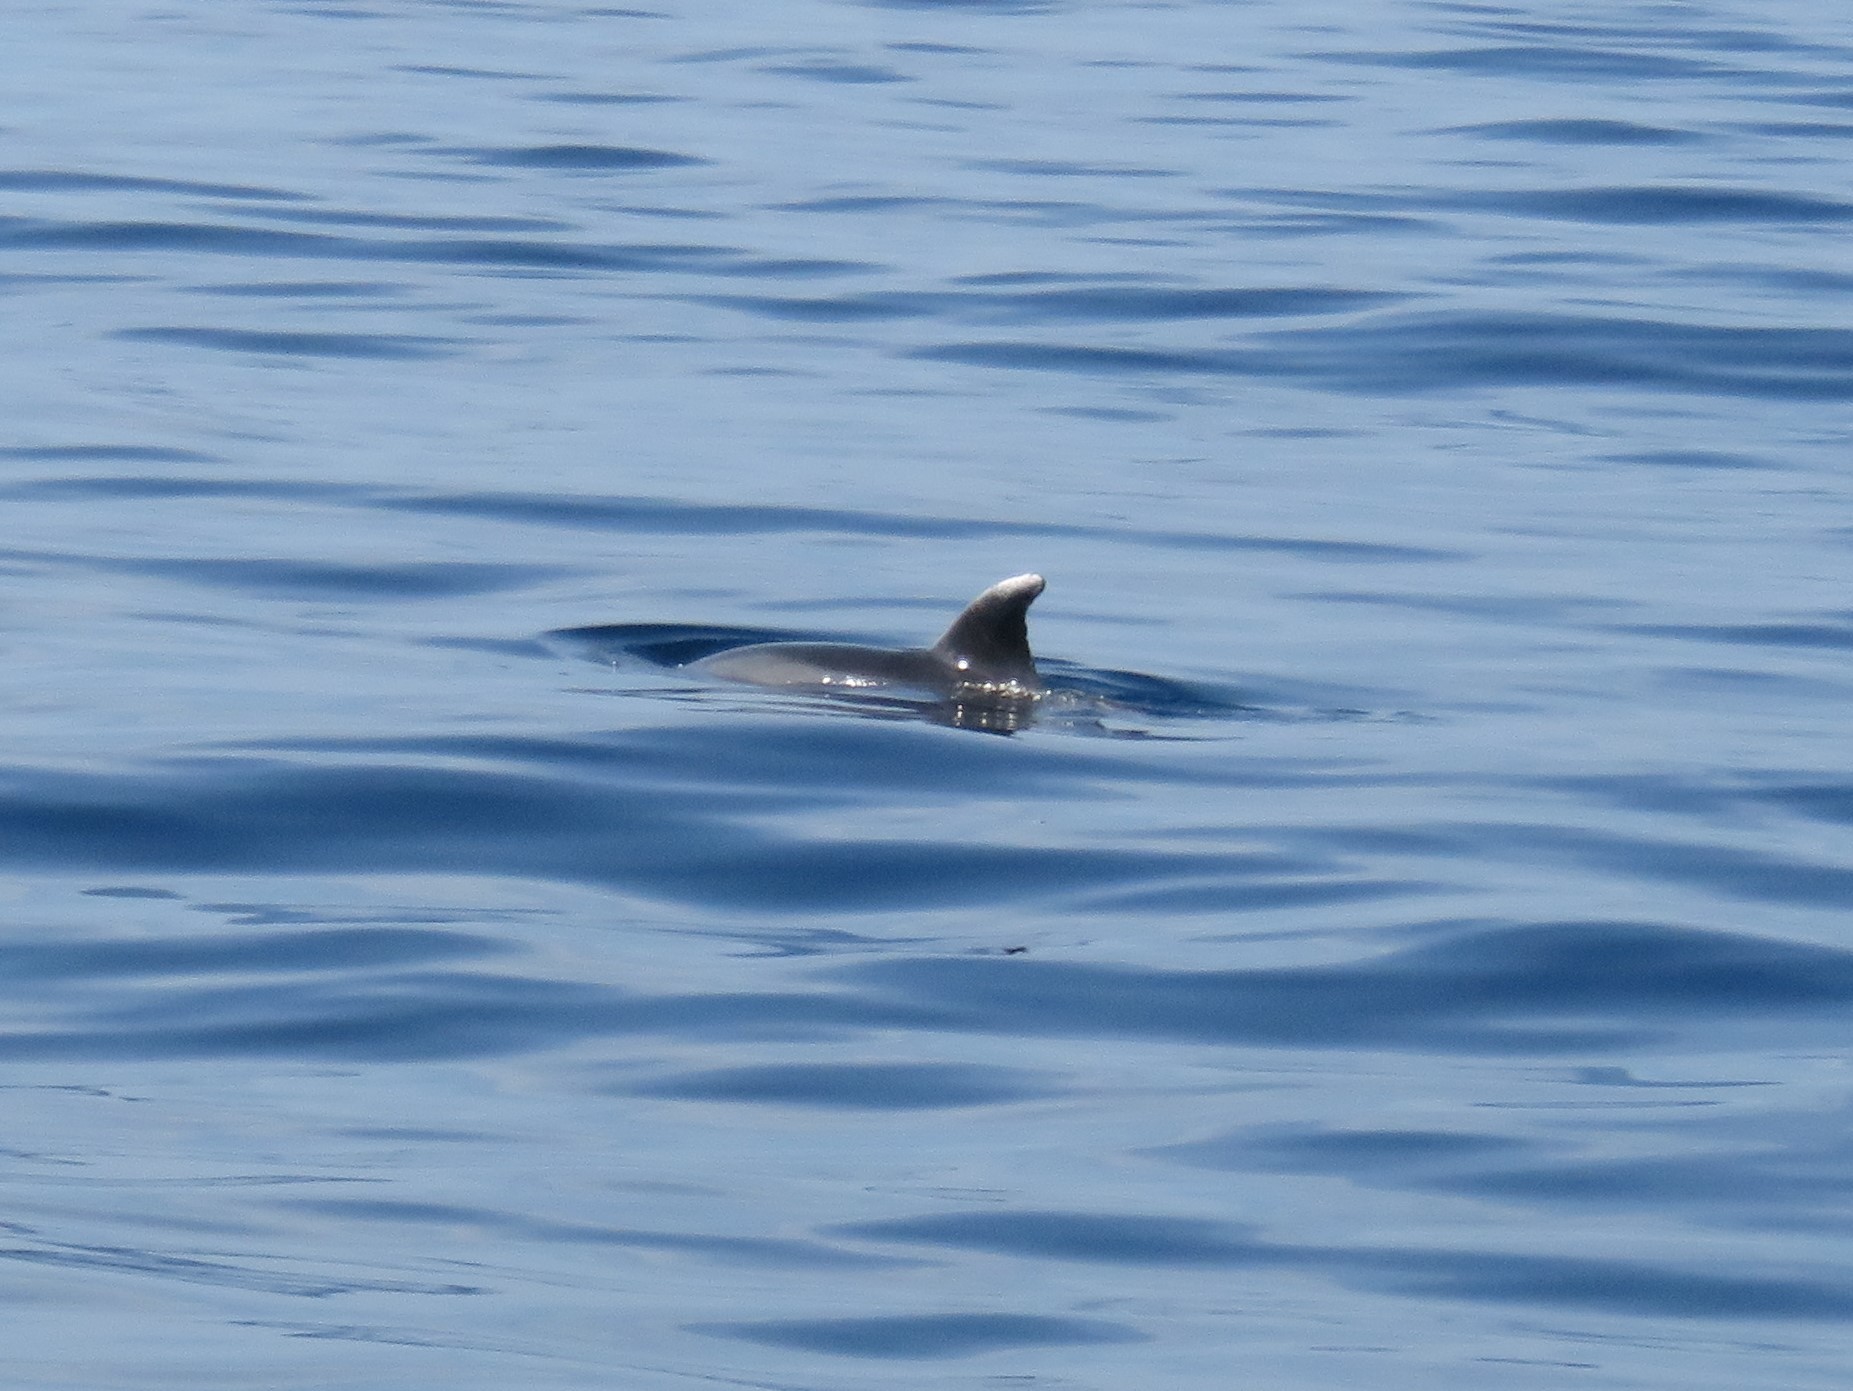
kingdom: Animalia
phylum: Chordata
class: Mammalia
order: Cetacea
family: Delphinidae
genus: Tursiops
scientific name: Tursiops truncatus
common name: Bottlenose dolphin
